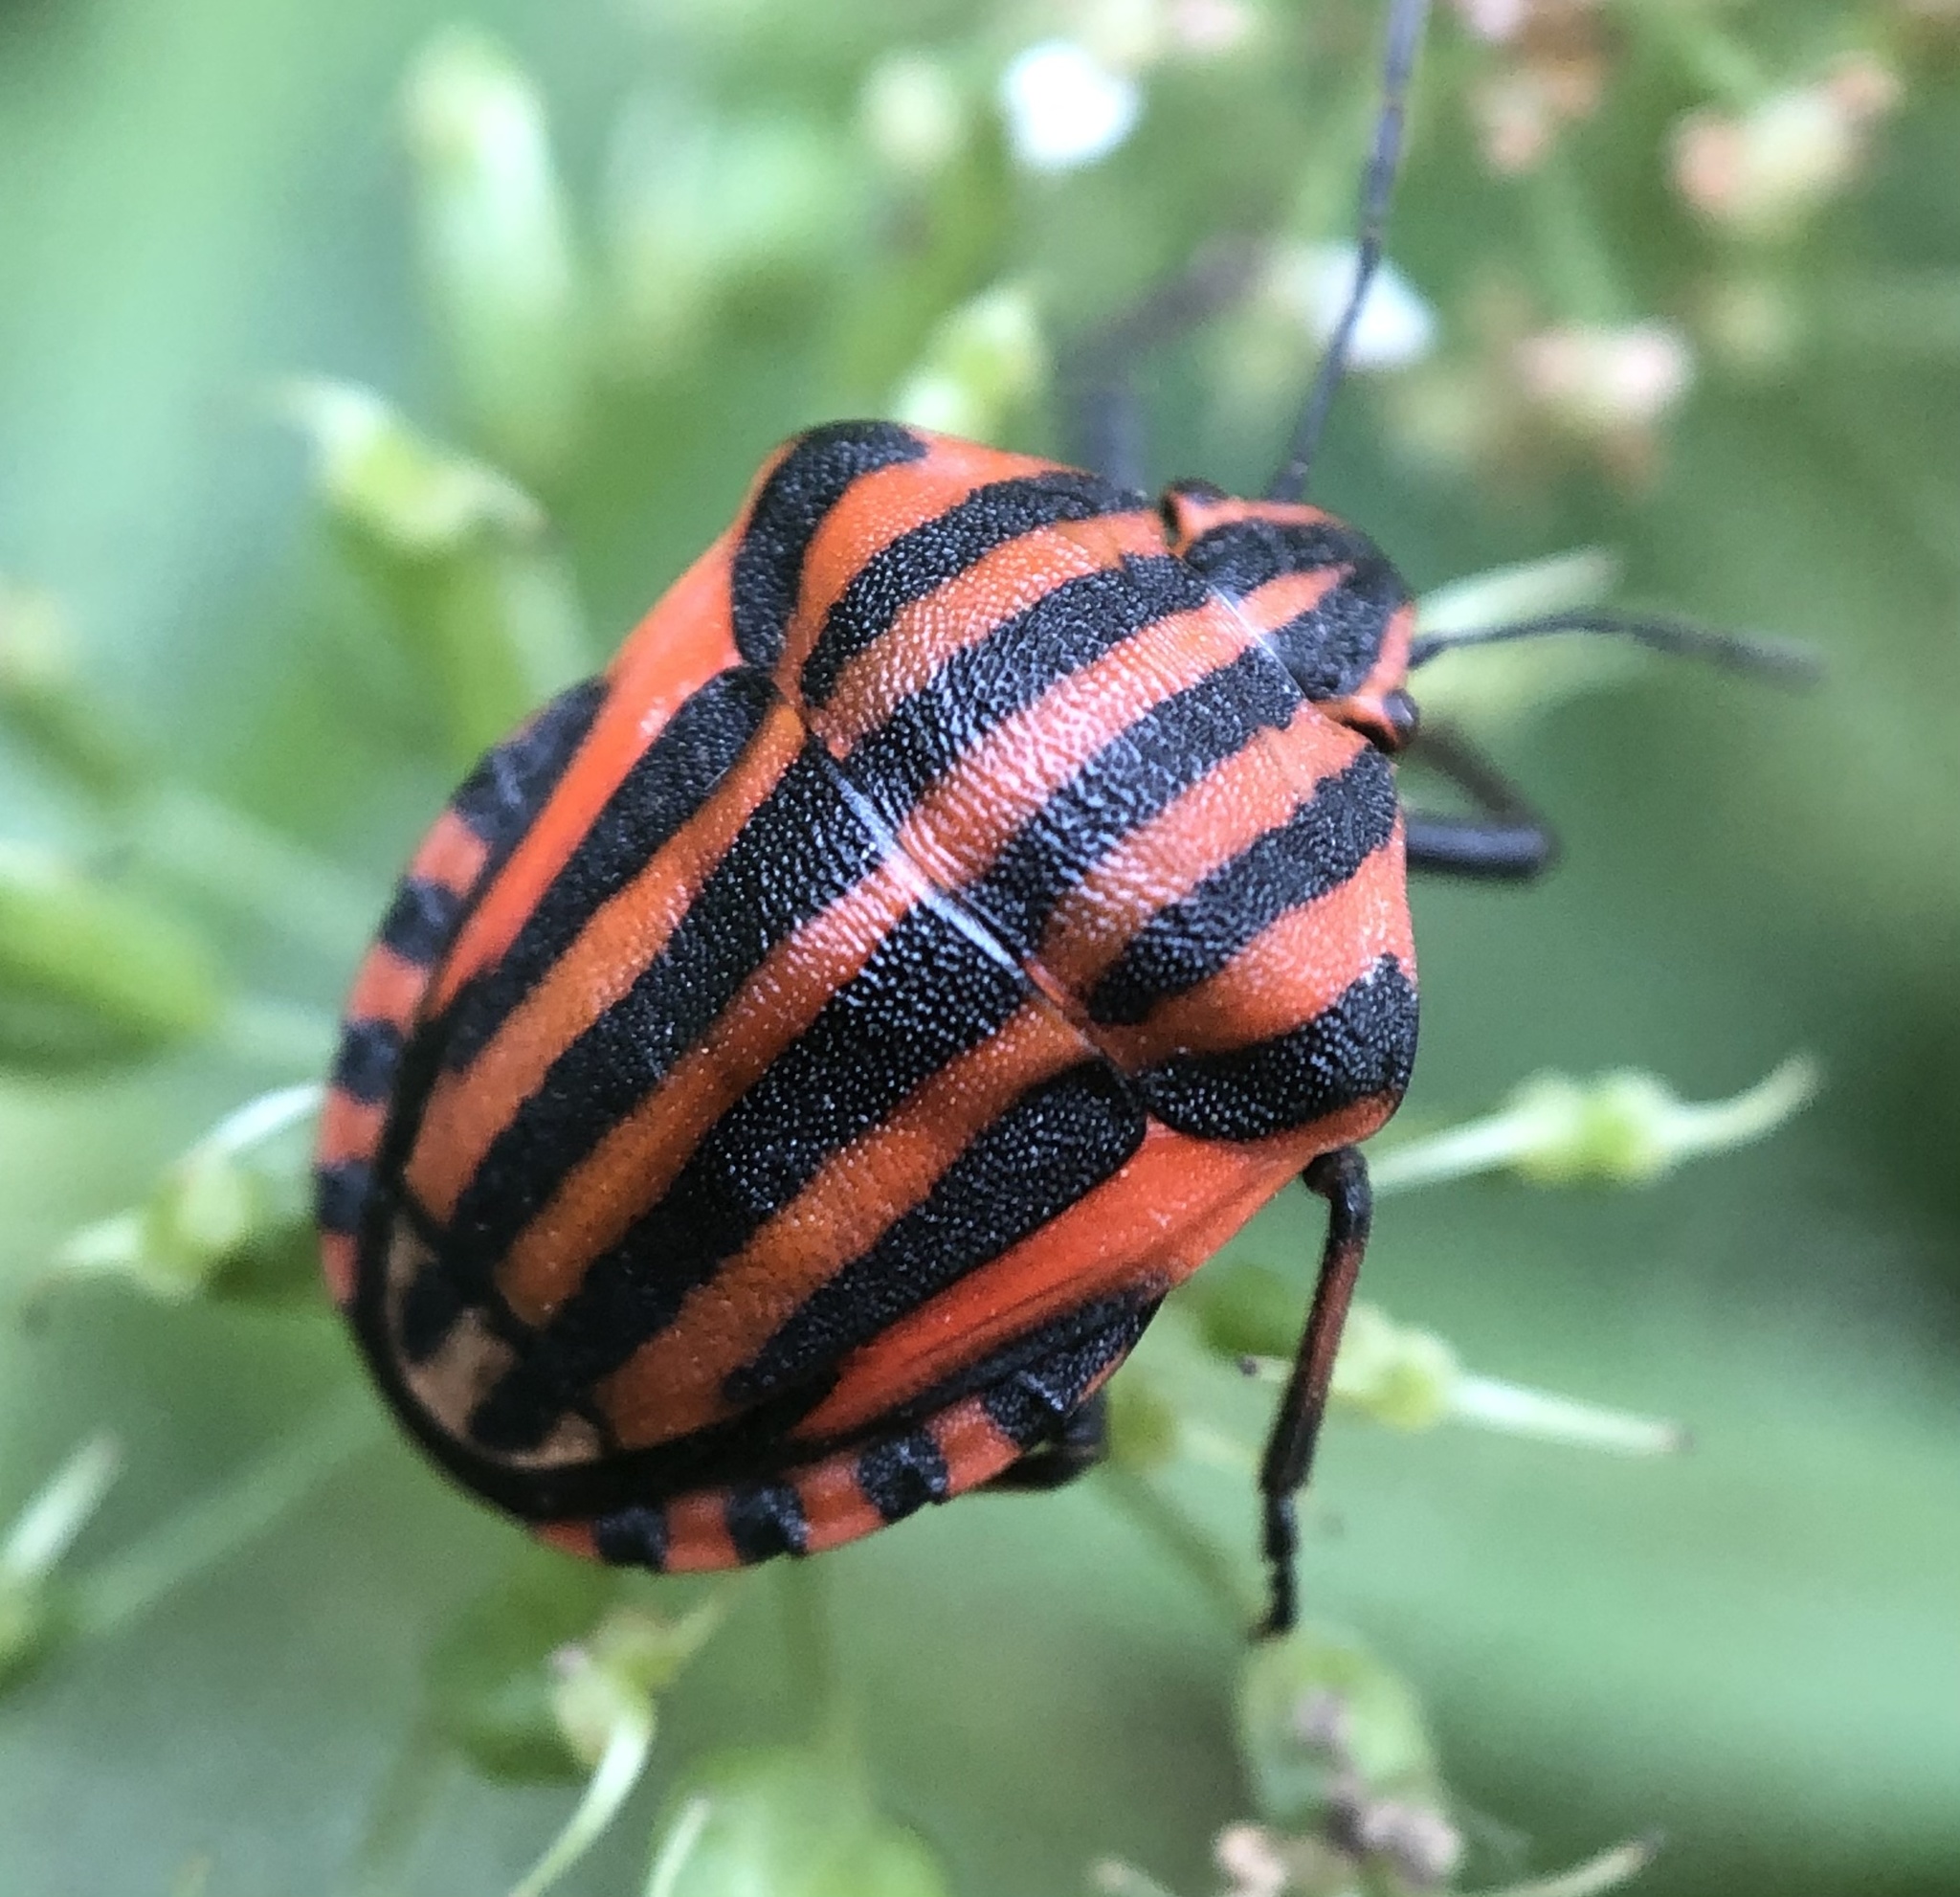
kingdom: Animalia
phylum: Arthropoda
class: Insecta
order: Hemiptera
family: Pentatomidae
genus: Graphosoma
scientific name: Graphosoma italicum
